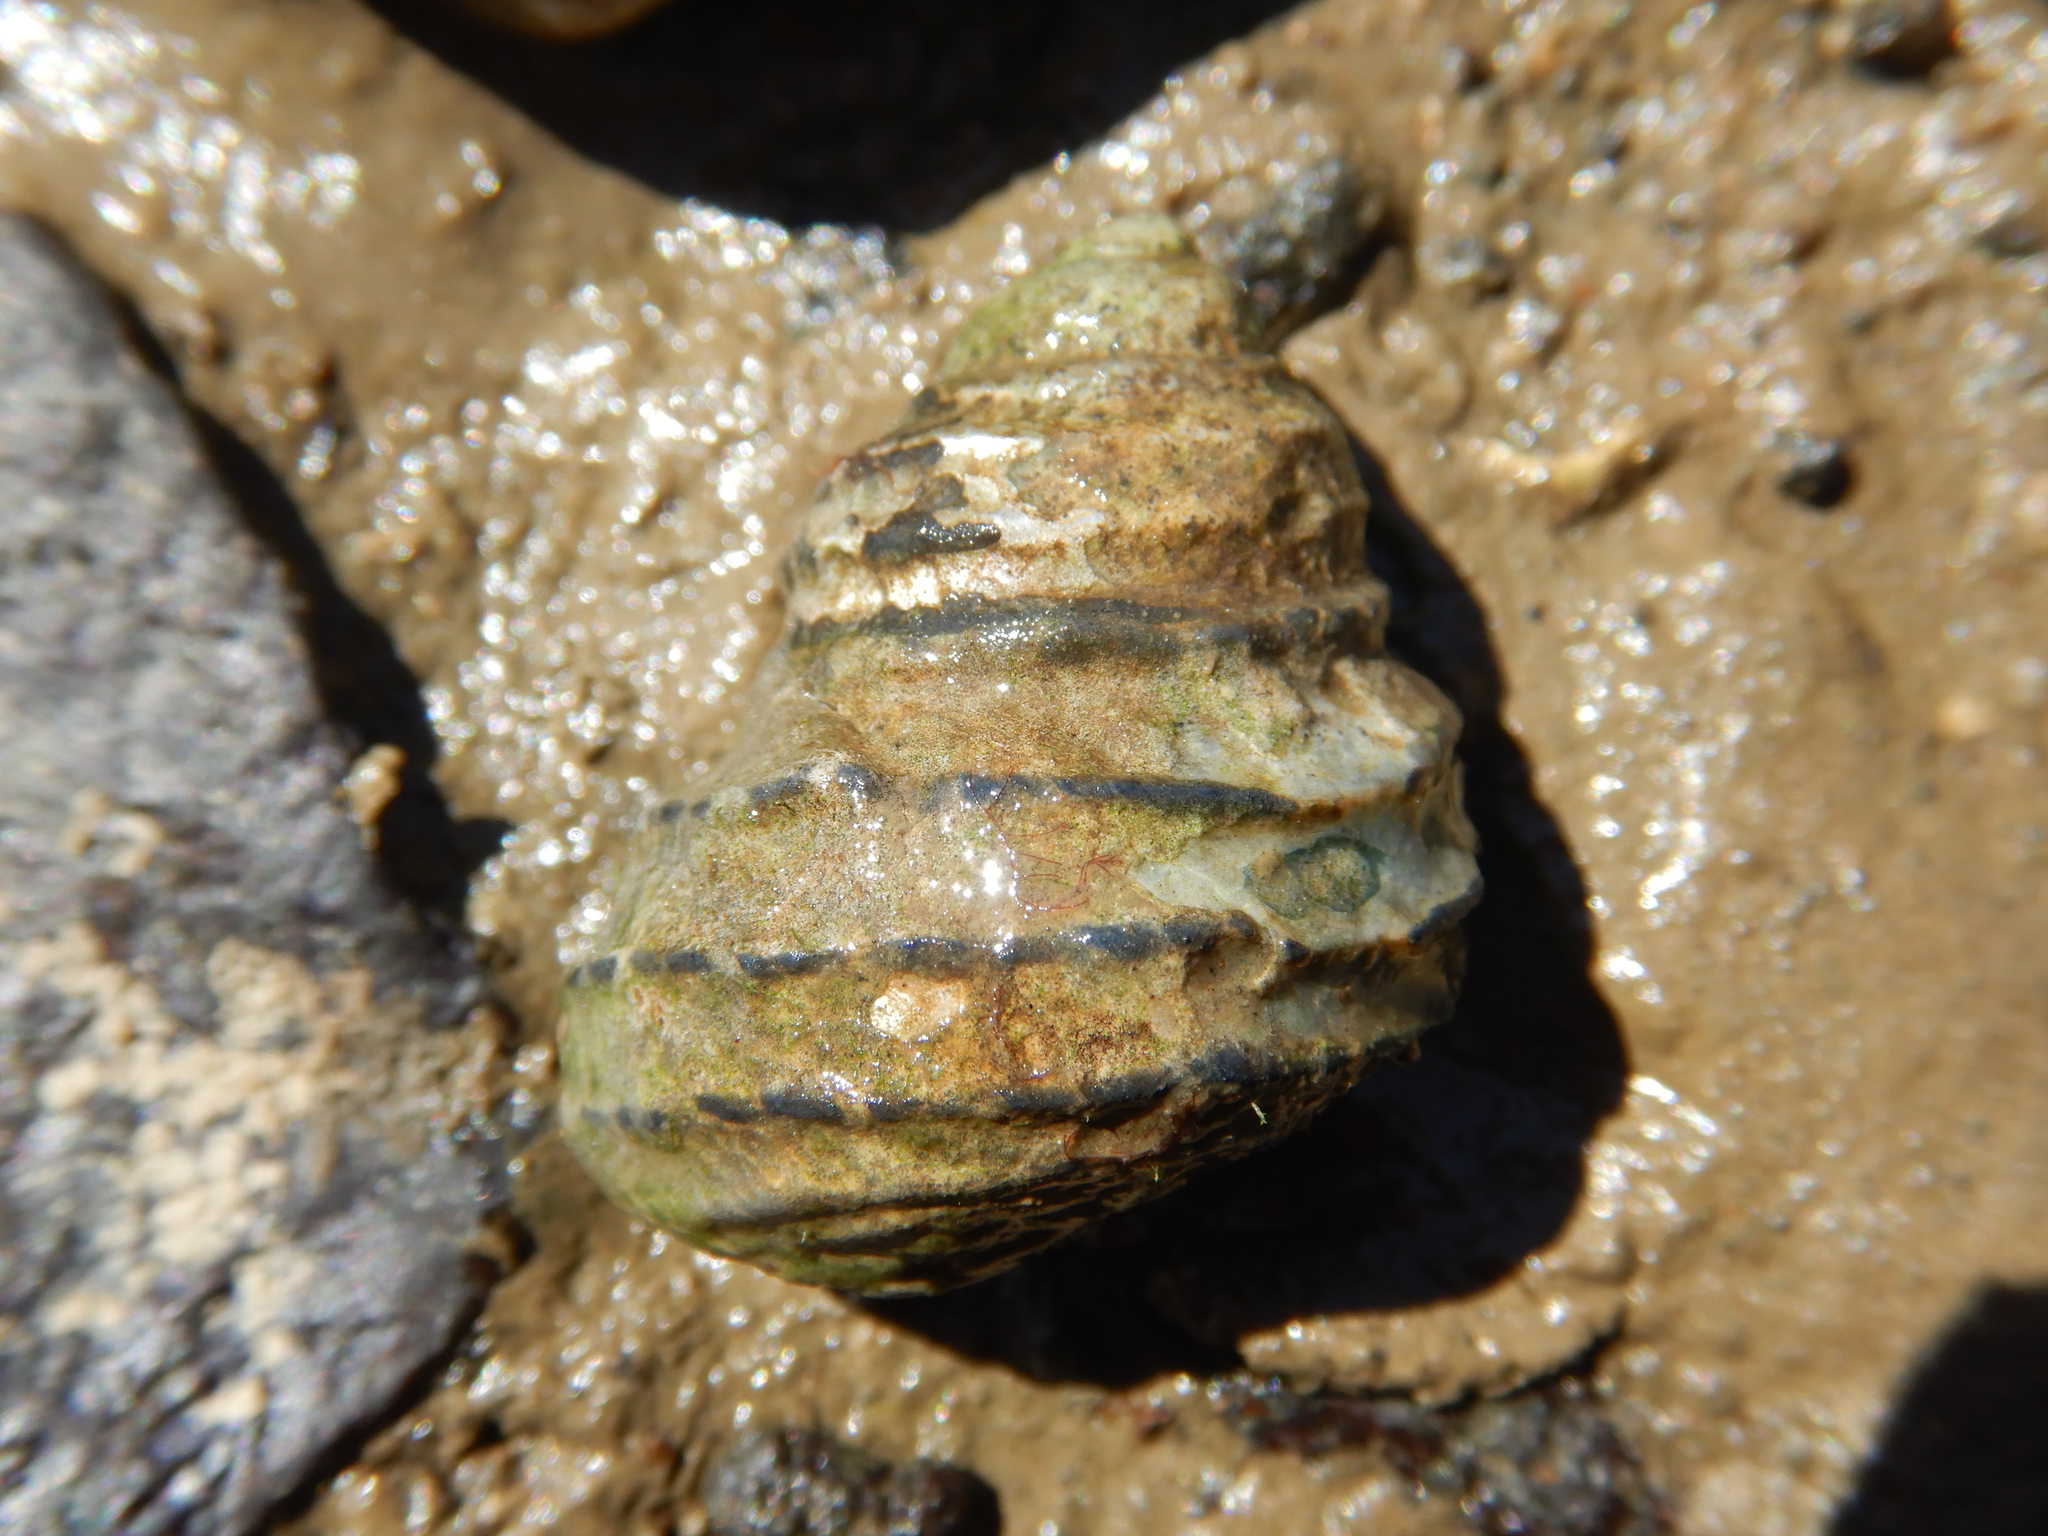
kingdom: Animalia
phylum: Mollusca
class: Gastropoda
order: Trochida
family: Trochidae
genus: Austrocochlea
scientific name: Austrocochlea constricta
